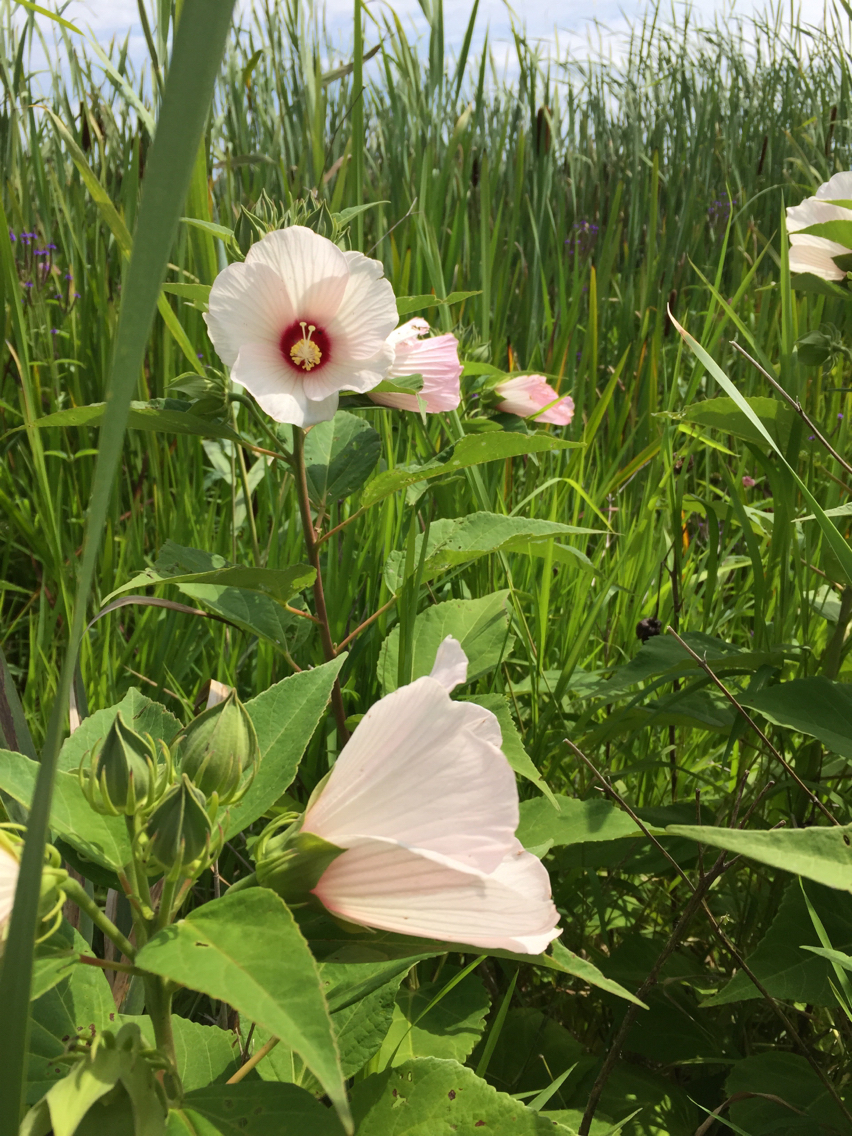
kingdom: Plantae
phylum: Tracheophyta
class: Magnoliopsida
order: Malvales
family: Malvaceae
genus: Hibiscus
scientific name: Hibiscus moscheutos
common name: Common rose-mallow
